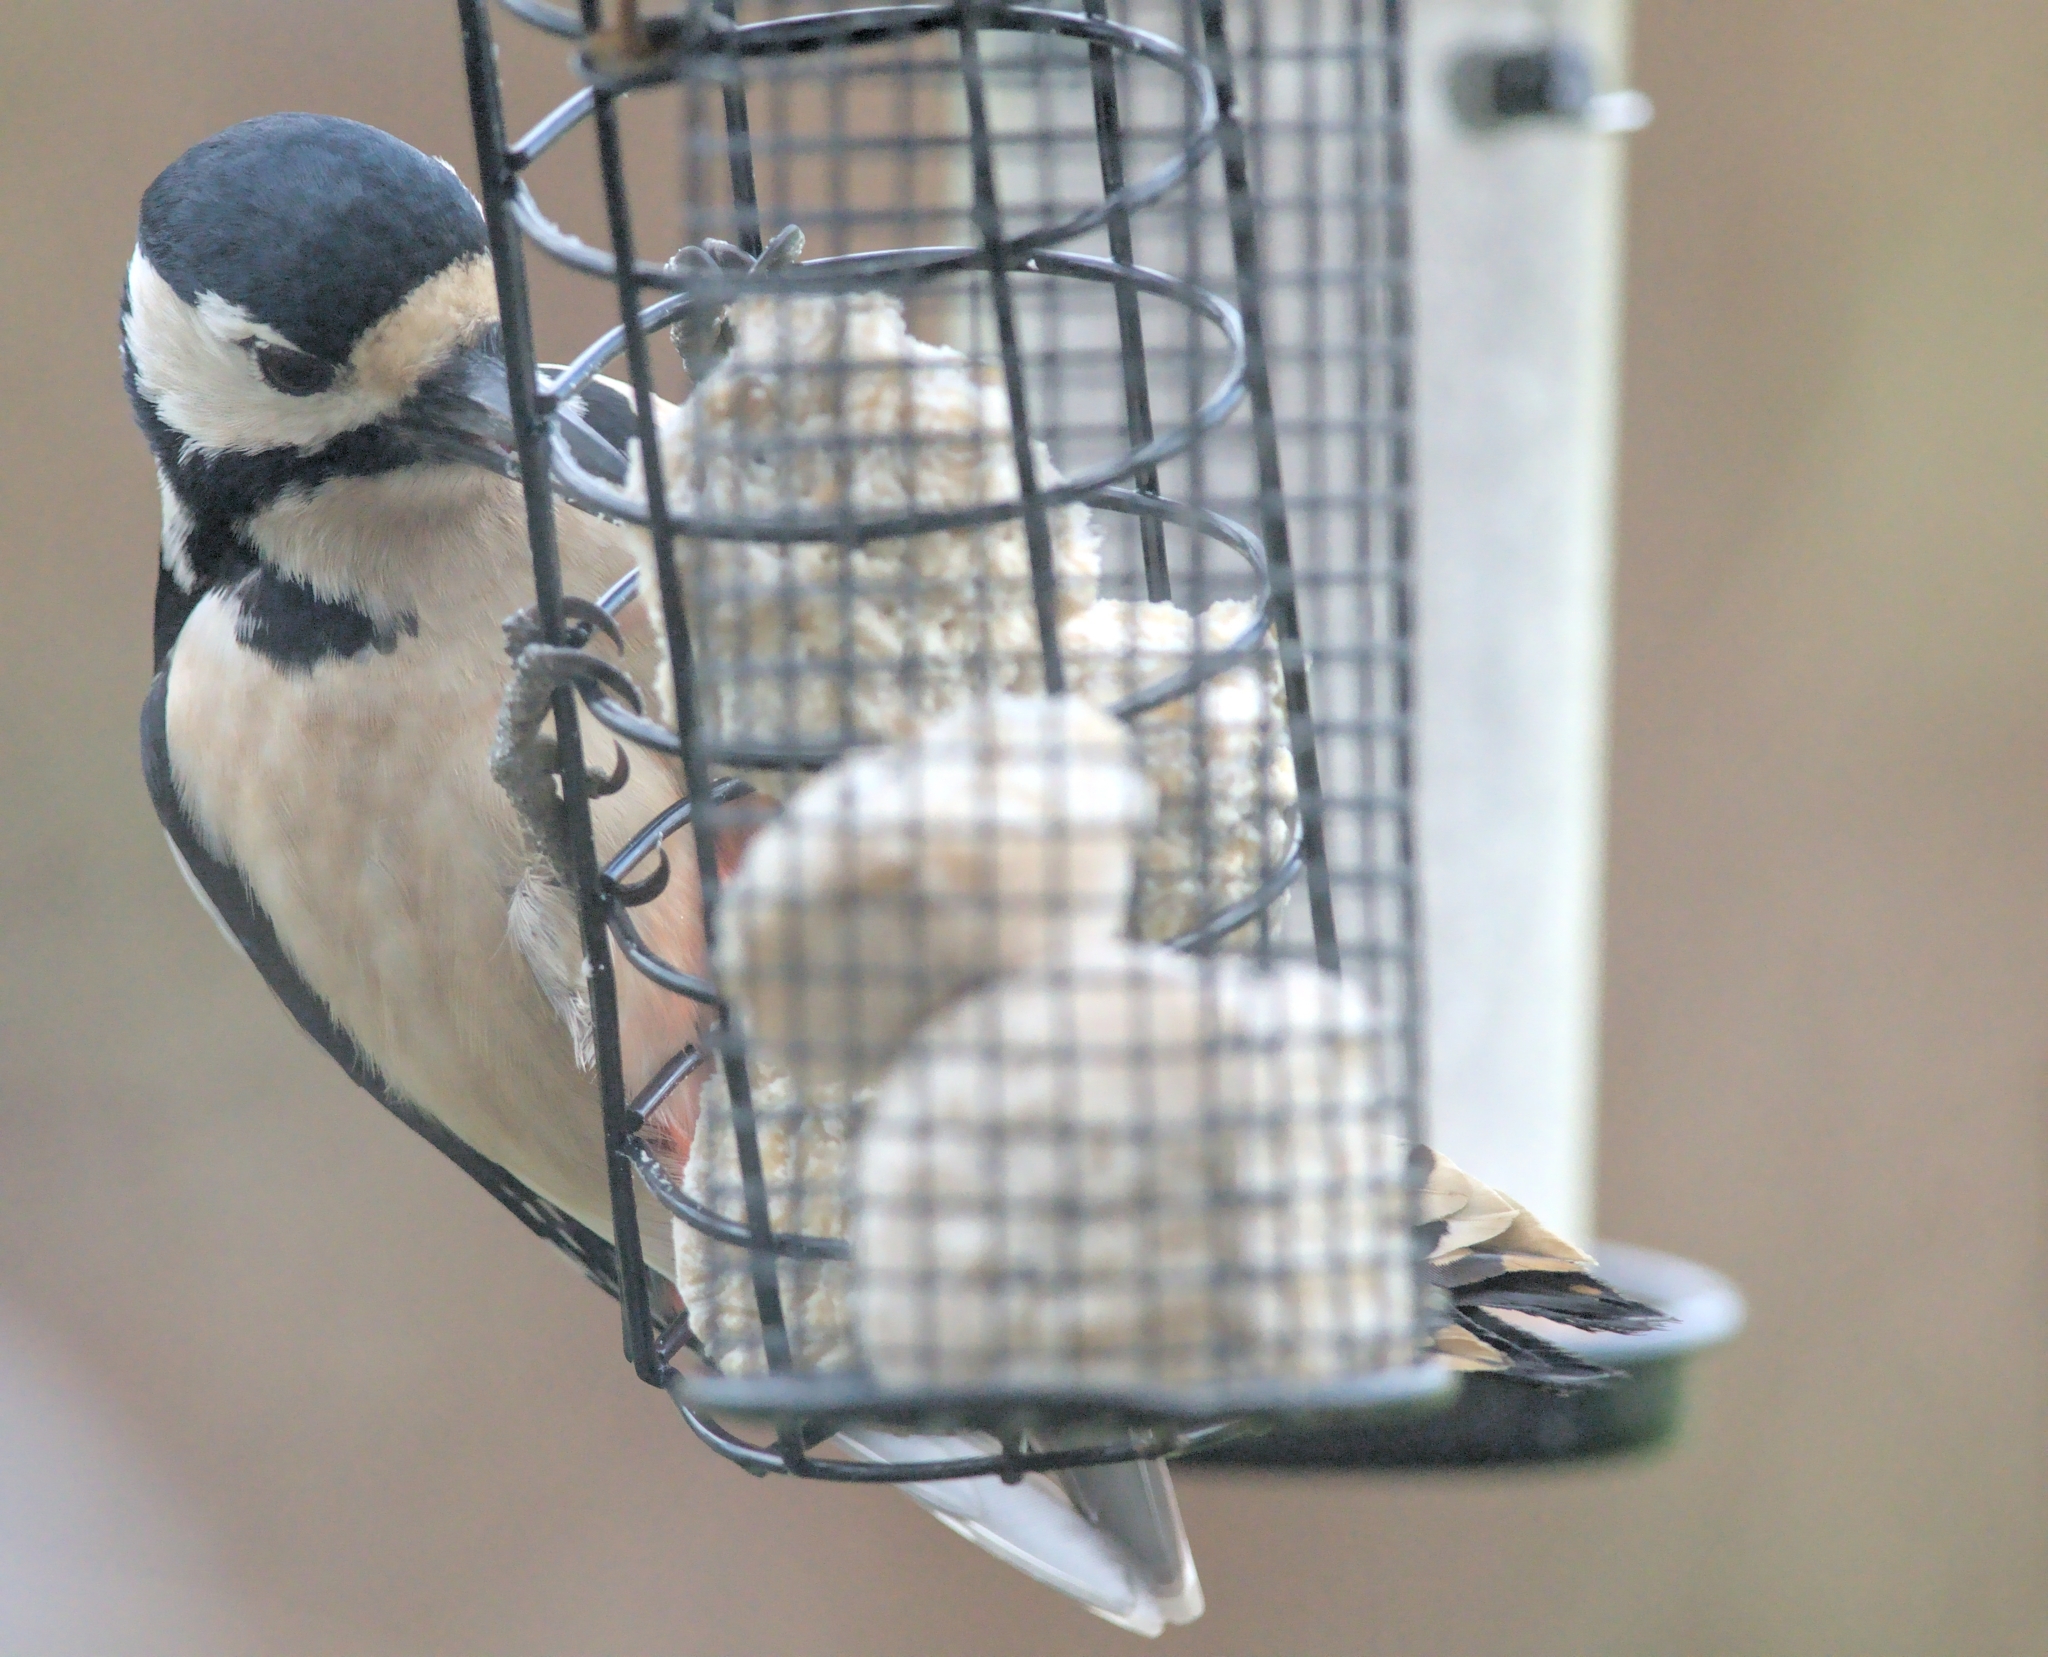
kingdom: Animalia
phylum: Chordata
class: Aves
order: Piciformes
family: Picidae
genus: Dendrocopos
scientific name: Dendrocopos major
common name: Great spotted woodpecker
